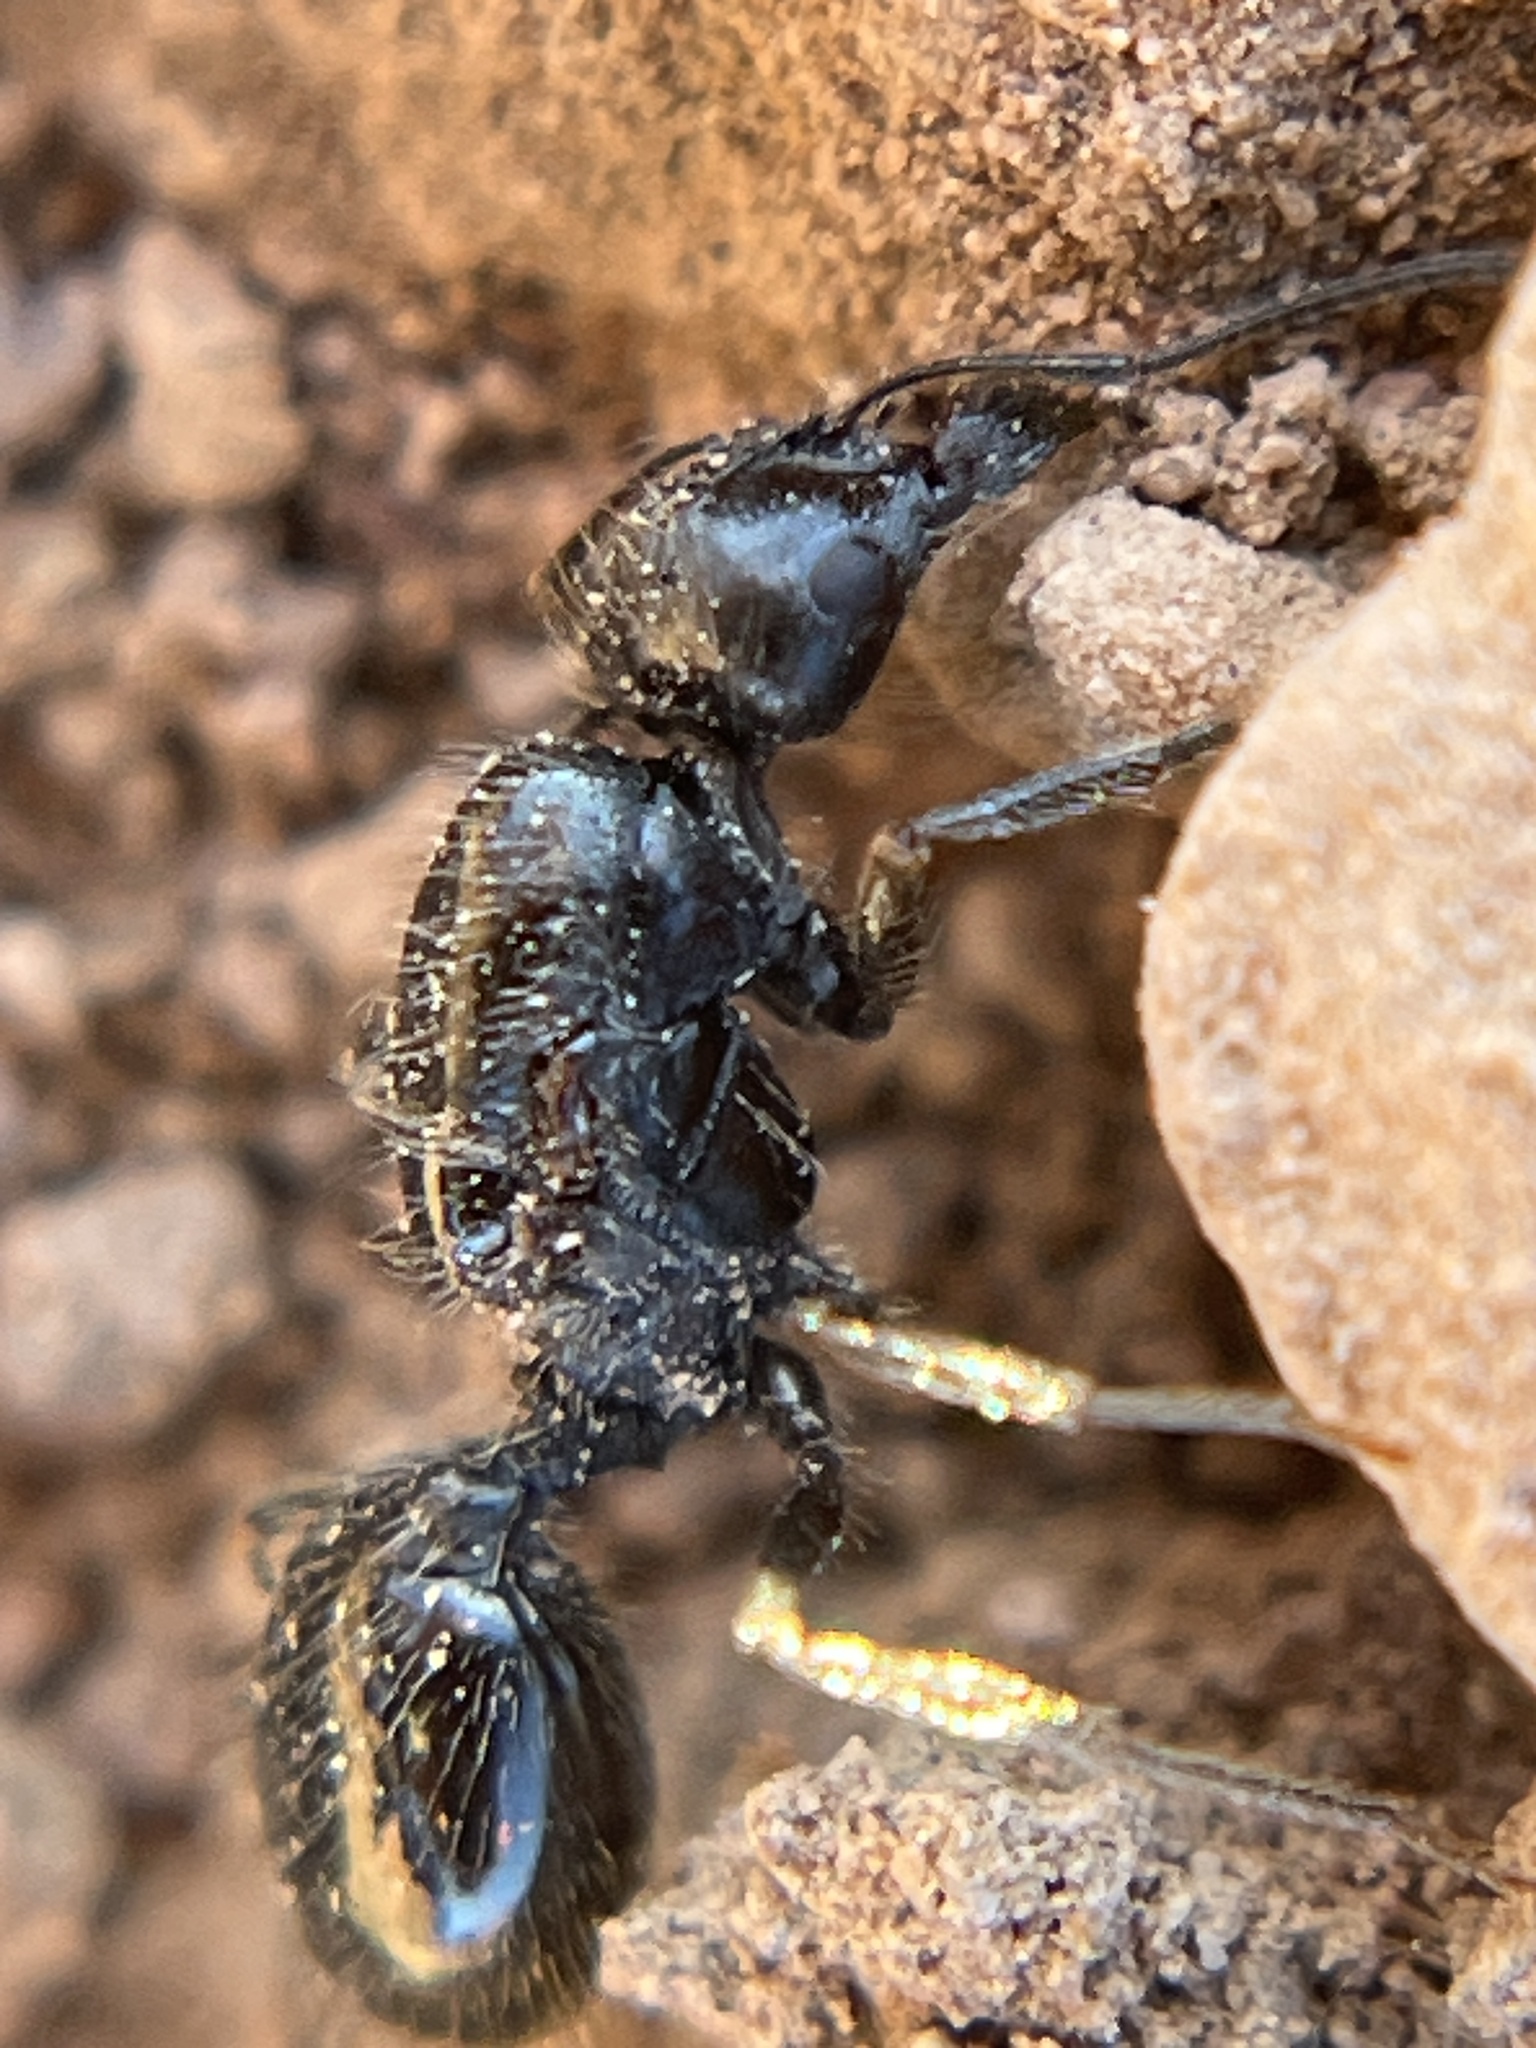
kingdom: Animalia
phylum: Arthropoda
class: Insecta
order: Hymenoptera
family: Formicidae
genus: Messor
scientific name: Messor pergandei
